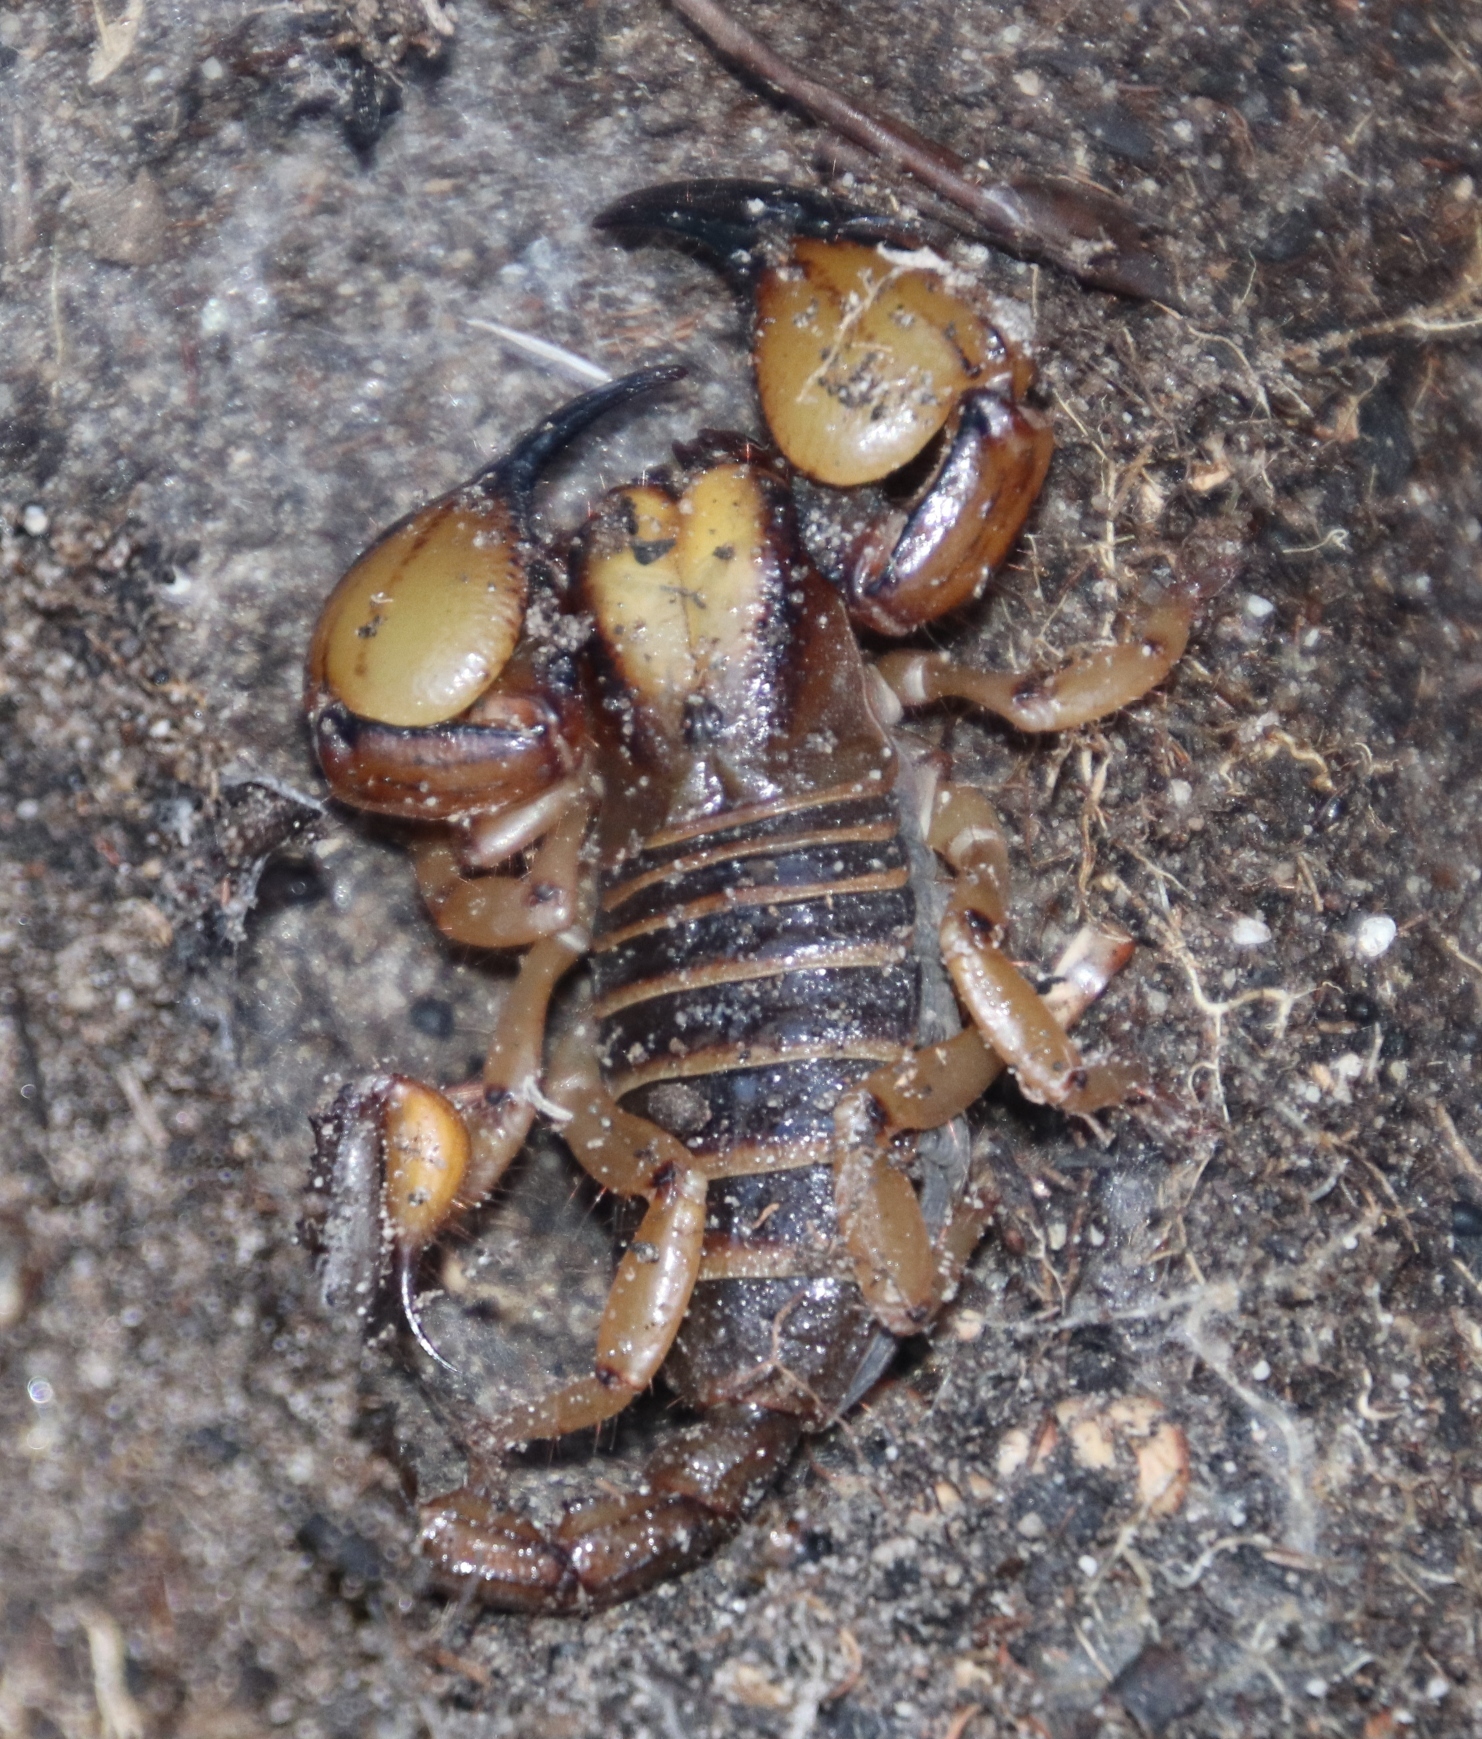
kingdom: Animalia
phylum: Arthropoda
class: Arachnida
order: Scorpiones
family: Scorpionidae
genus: Opistophthalmus
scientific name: Opistophthalmus capensis
